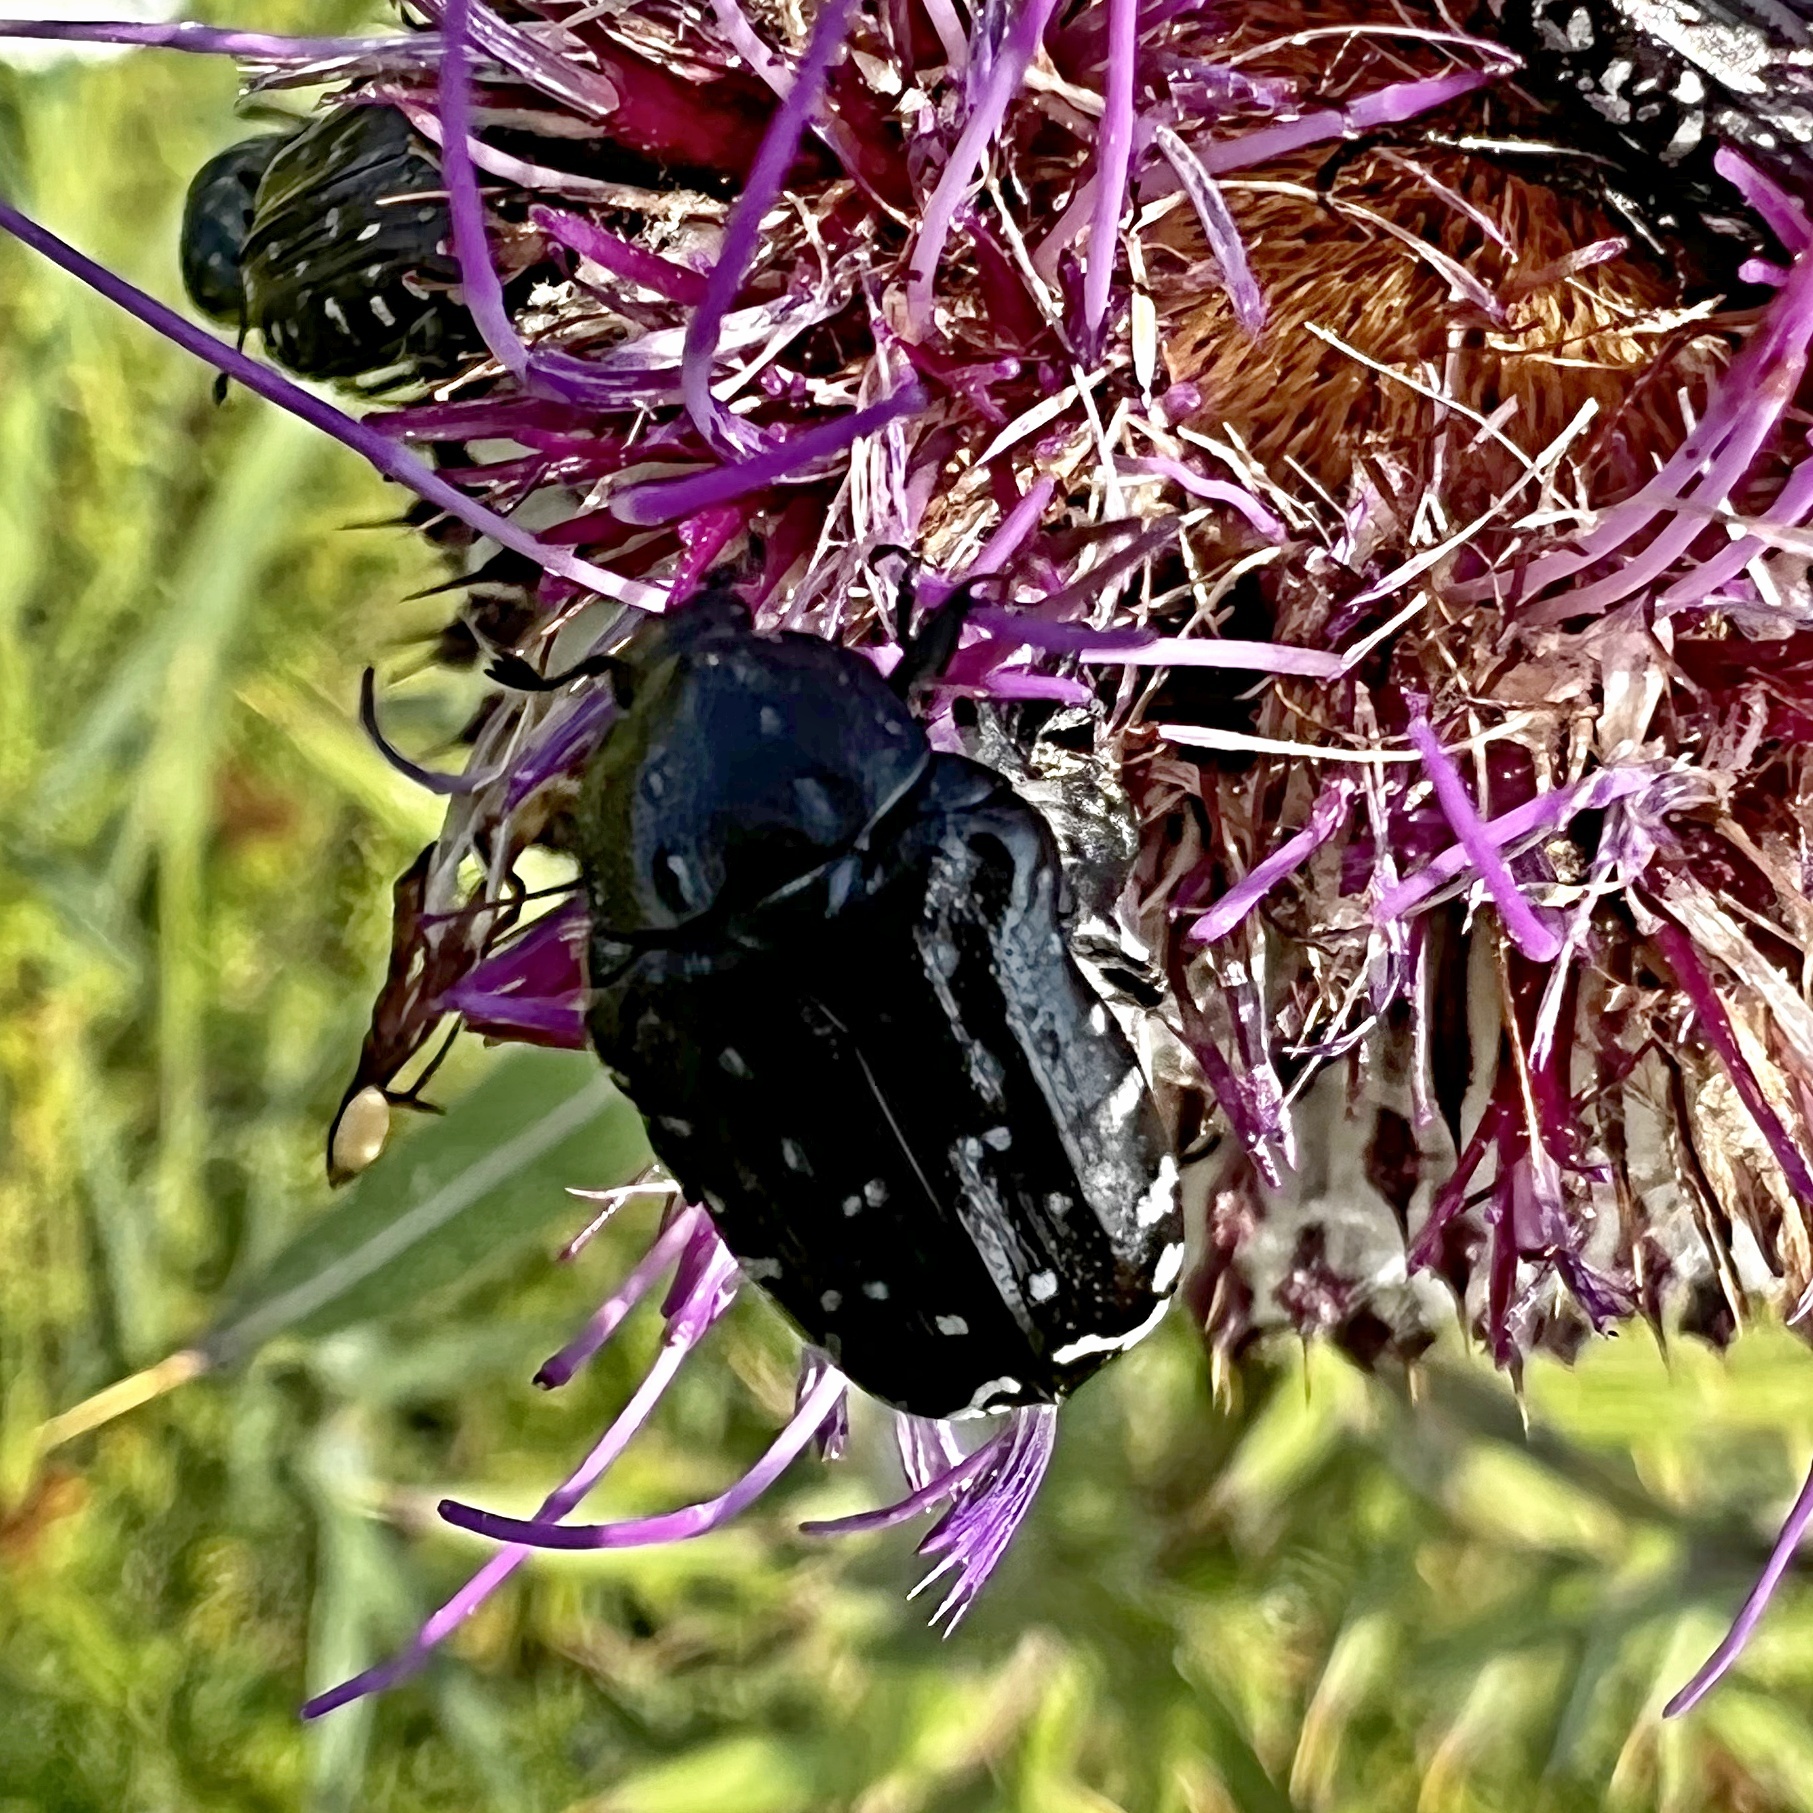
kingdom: Animalia
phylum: Arthropoda
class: Insecta
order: Coleoptera
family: Scarabaeidae
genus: Oxythyrea
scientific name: Oxythyrea funesta
